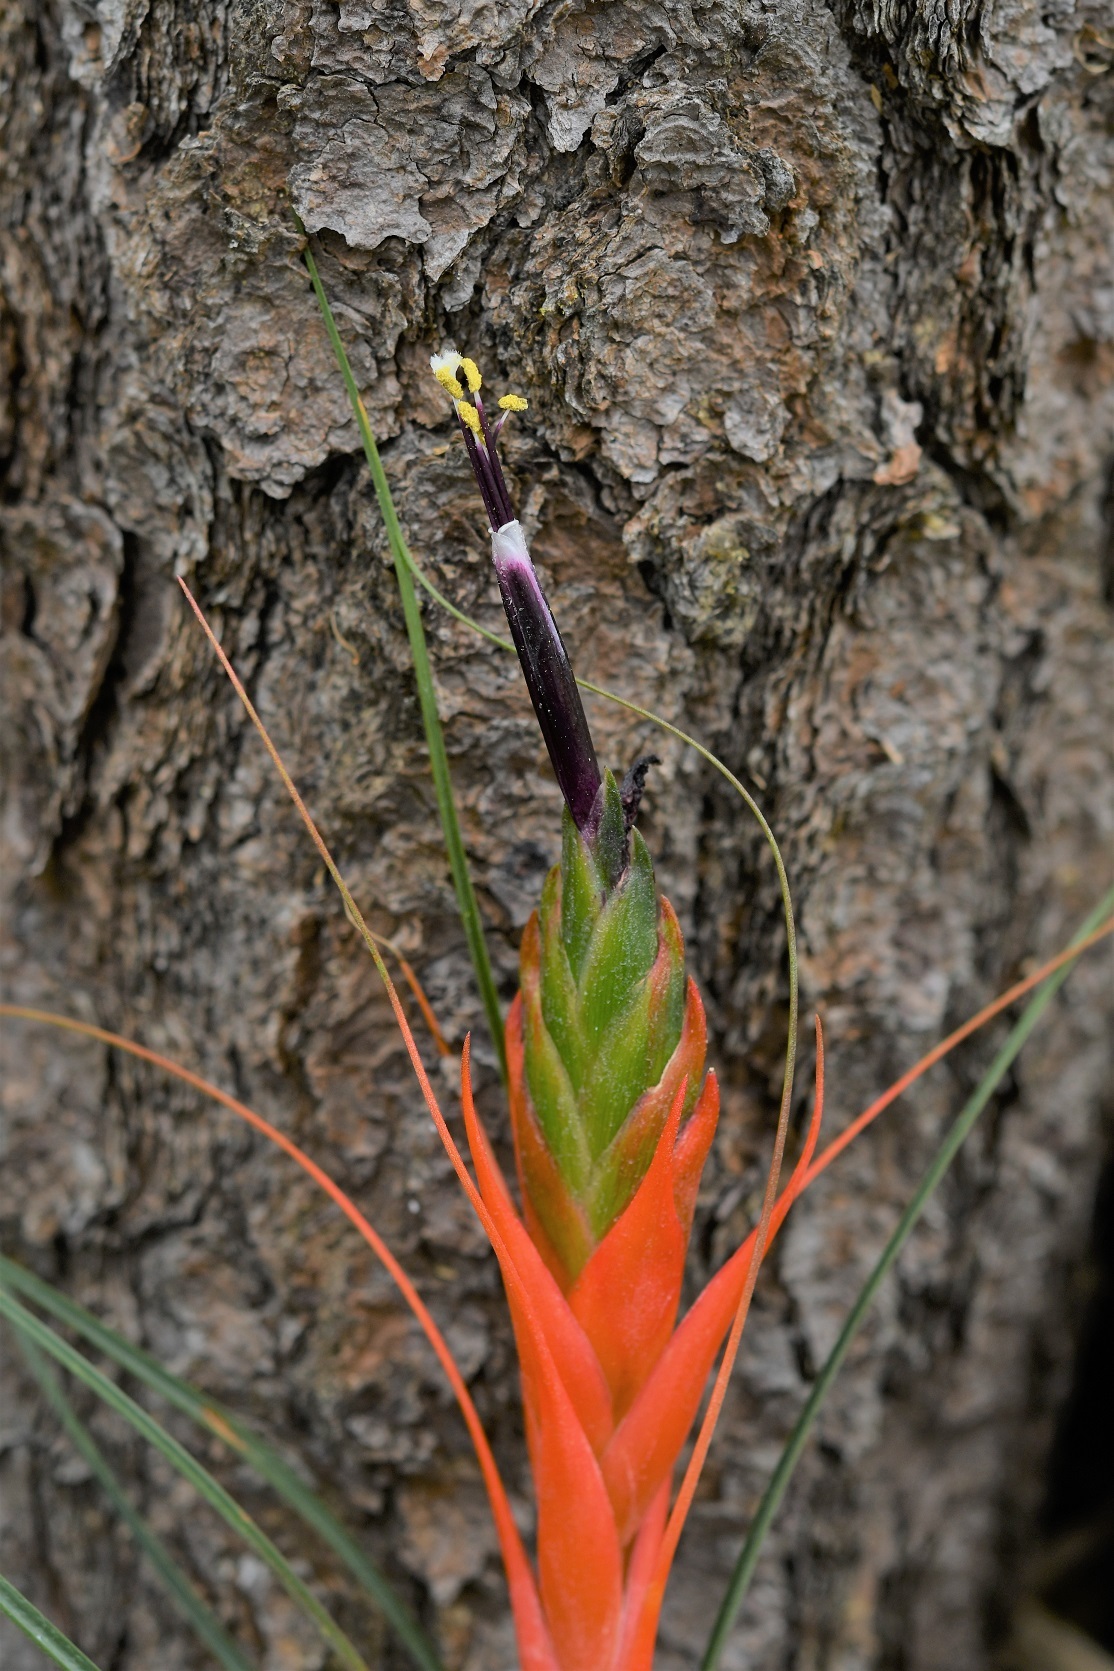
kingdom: Plantae
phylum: Tracheophyta
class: Liliopsida
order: Poales
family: Bromeliaceae
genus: Tillandsia
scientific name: Tillandsia punctulata
